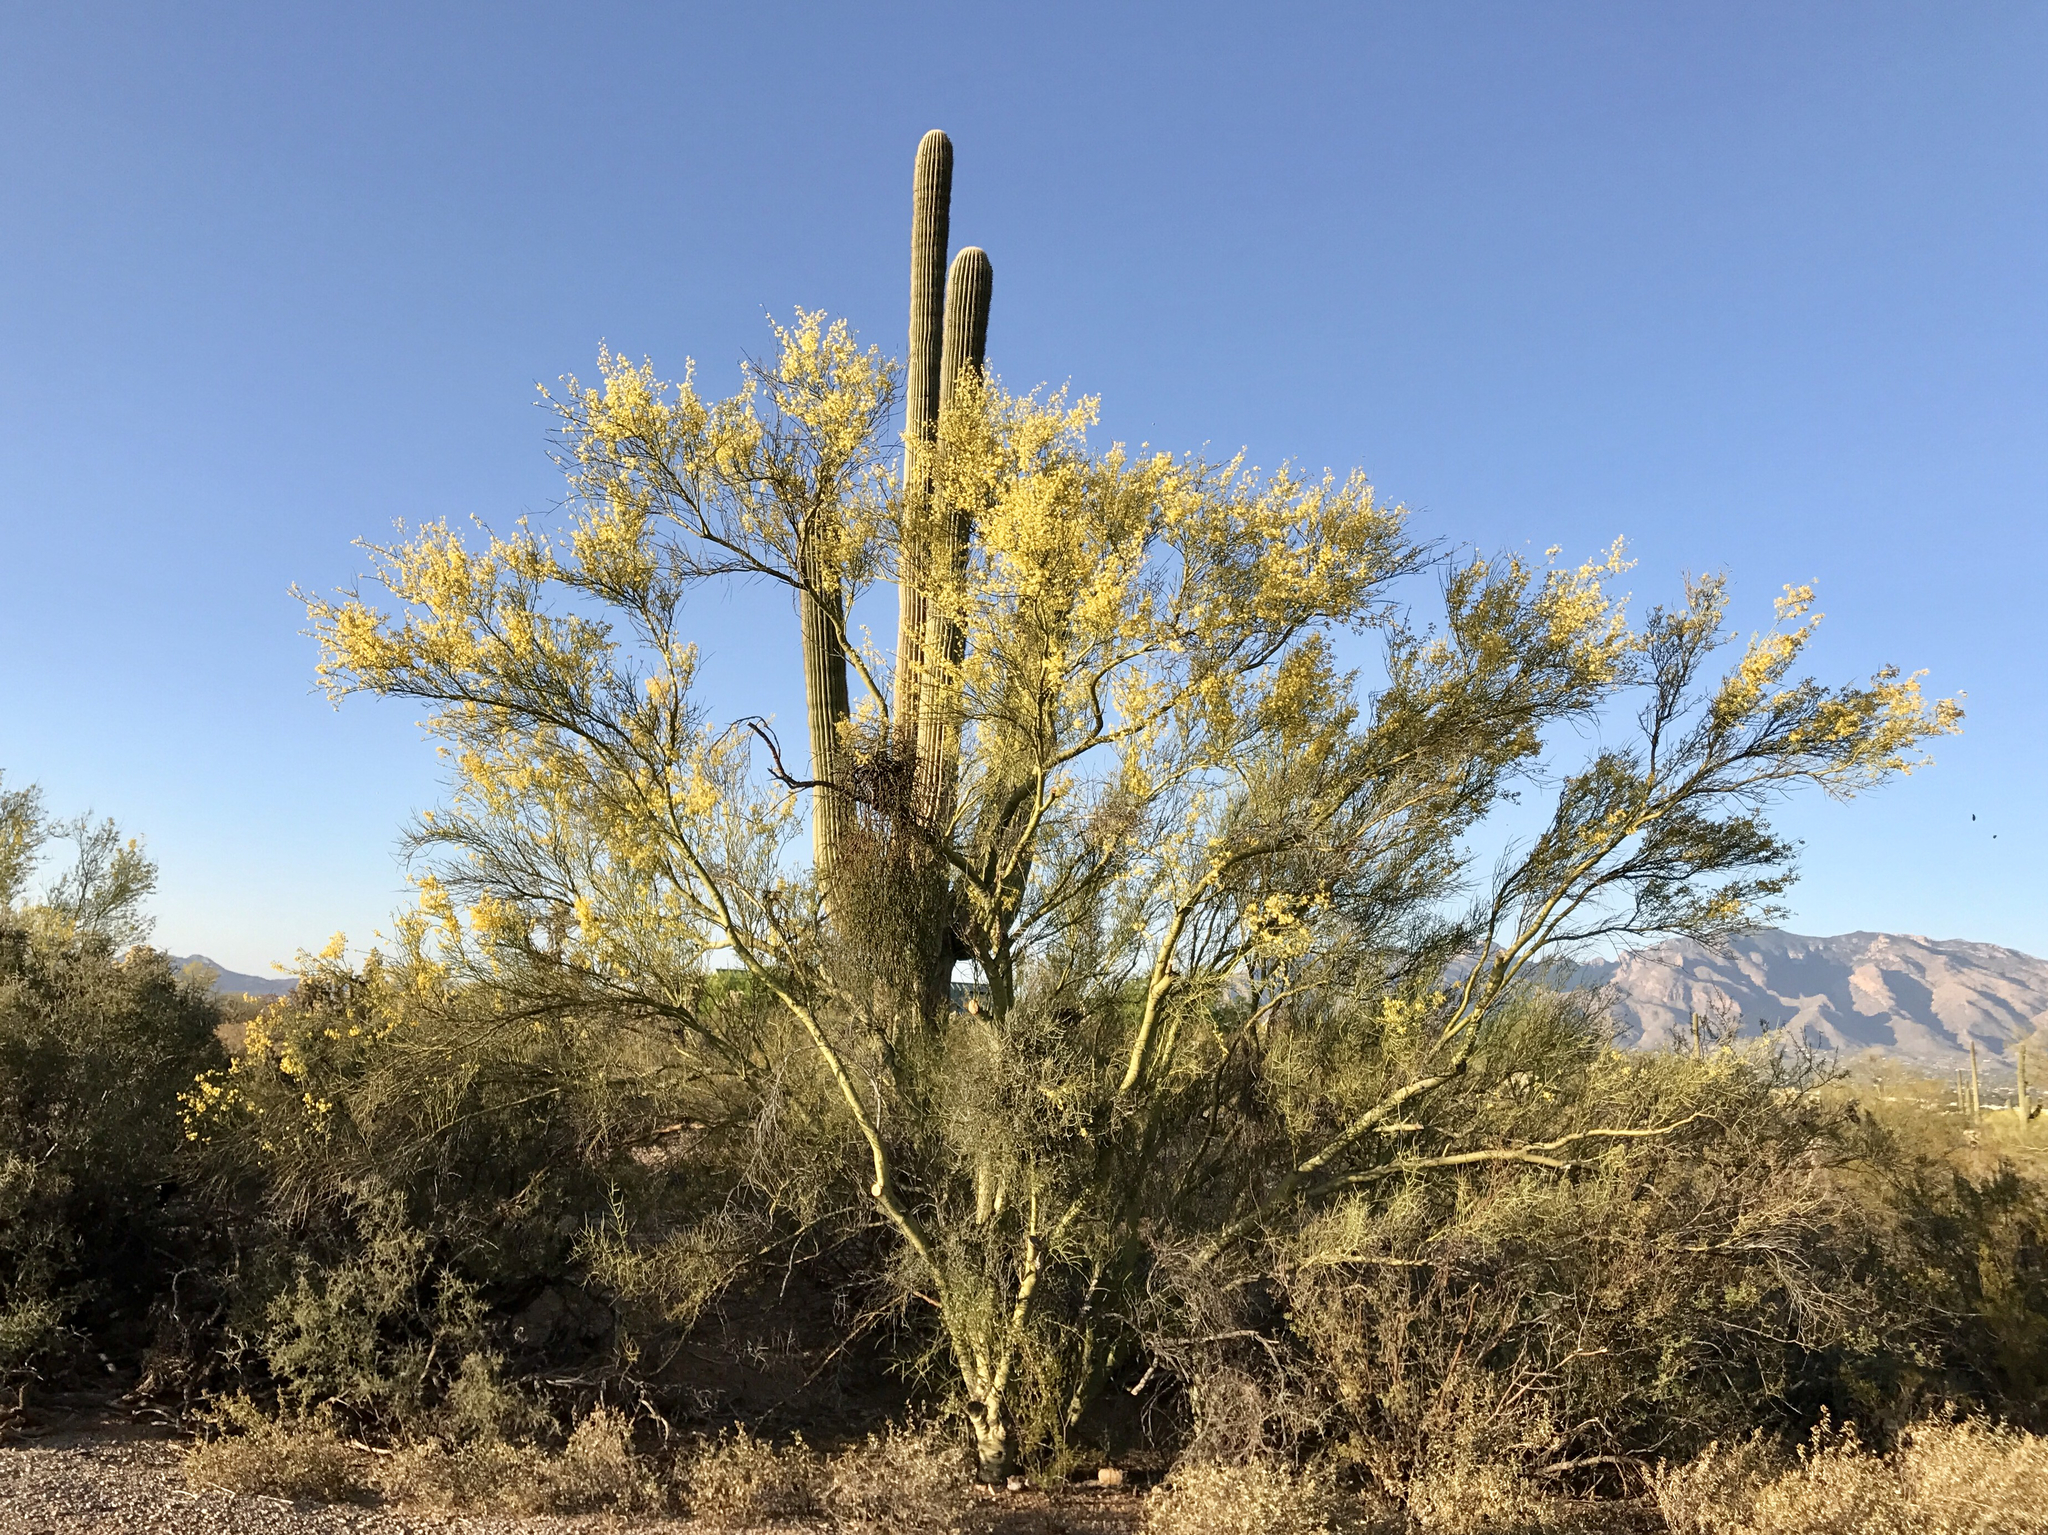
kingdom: Plantae
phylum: Tracheophyta
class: Magnoliopsida
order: Caryophyllales
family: Cactaceae
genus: Carnegiea
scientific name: Carnegiea gigantea
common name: Saguaro
